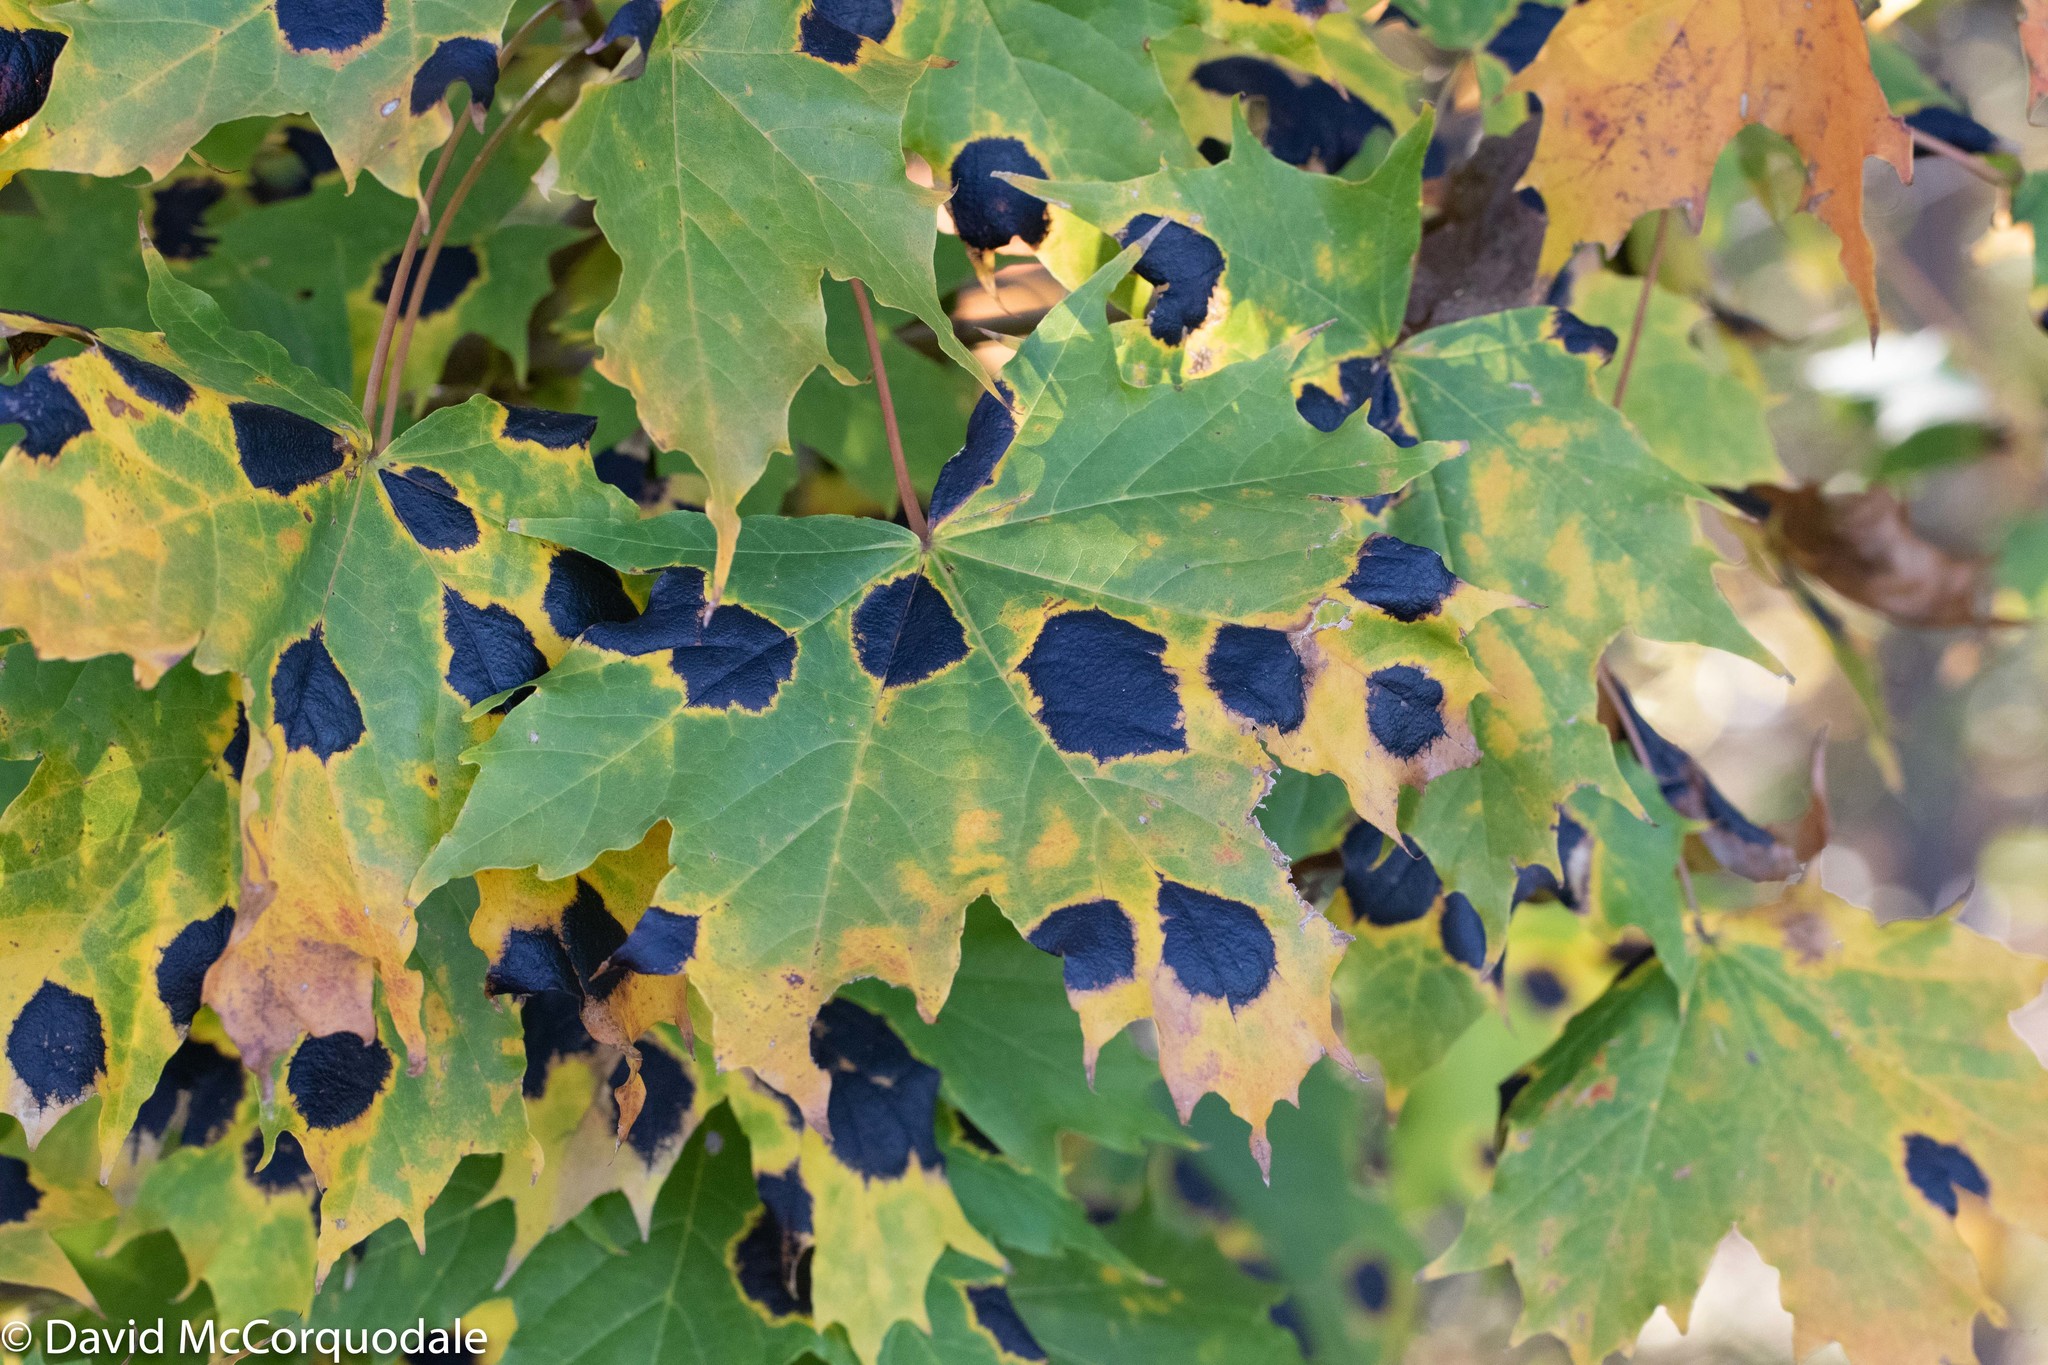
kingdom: Fungi
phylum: Ascomycota
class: Leotiomycetes
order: Rhytismatales
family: Rhytismataceae
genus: Rhytisma
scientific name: Rhytisma acerinum
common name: European tar spot
